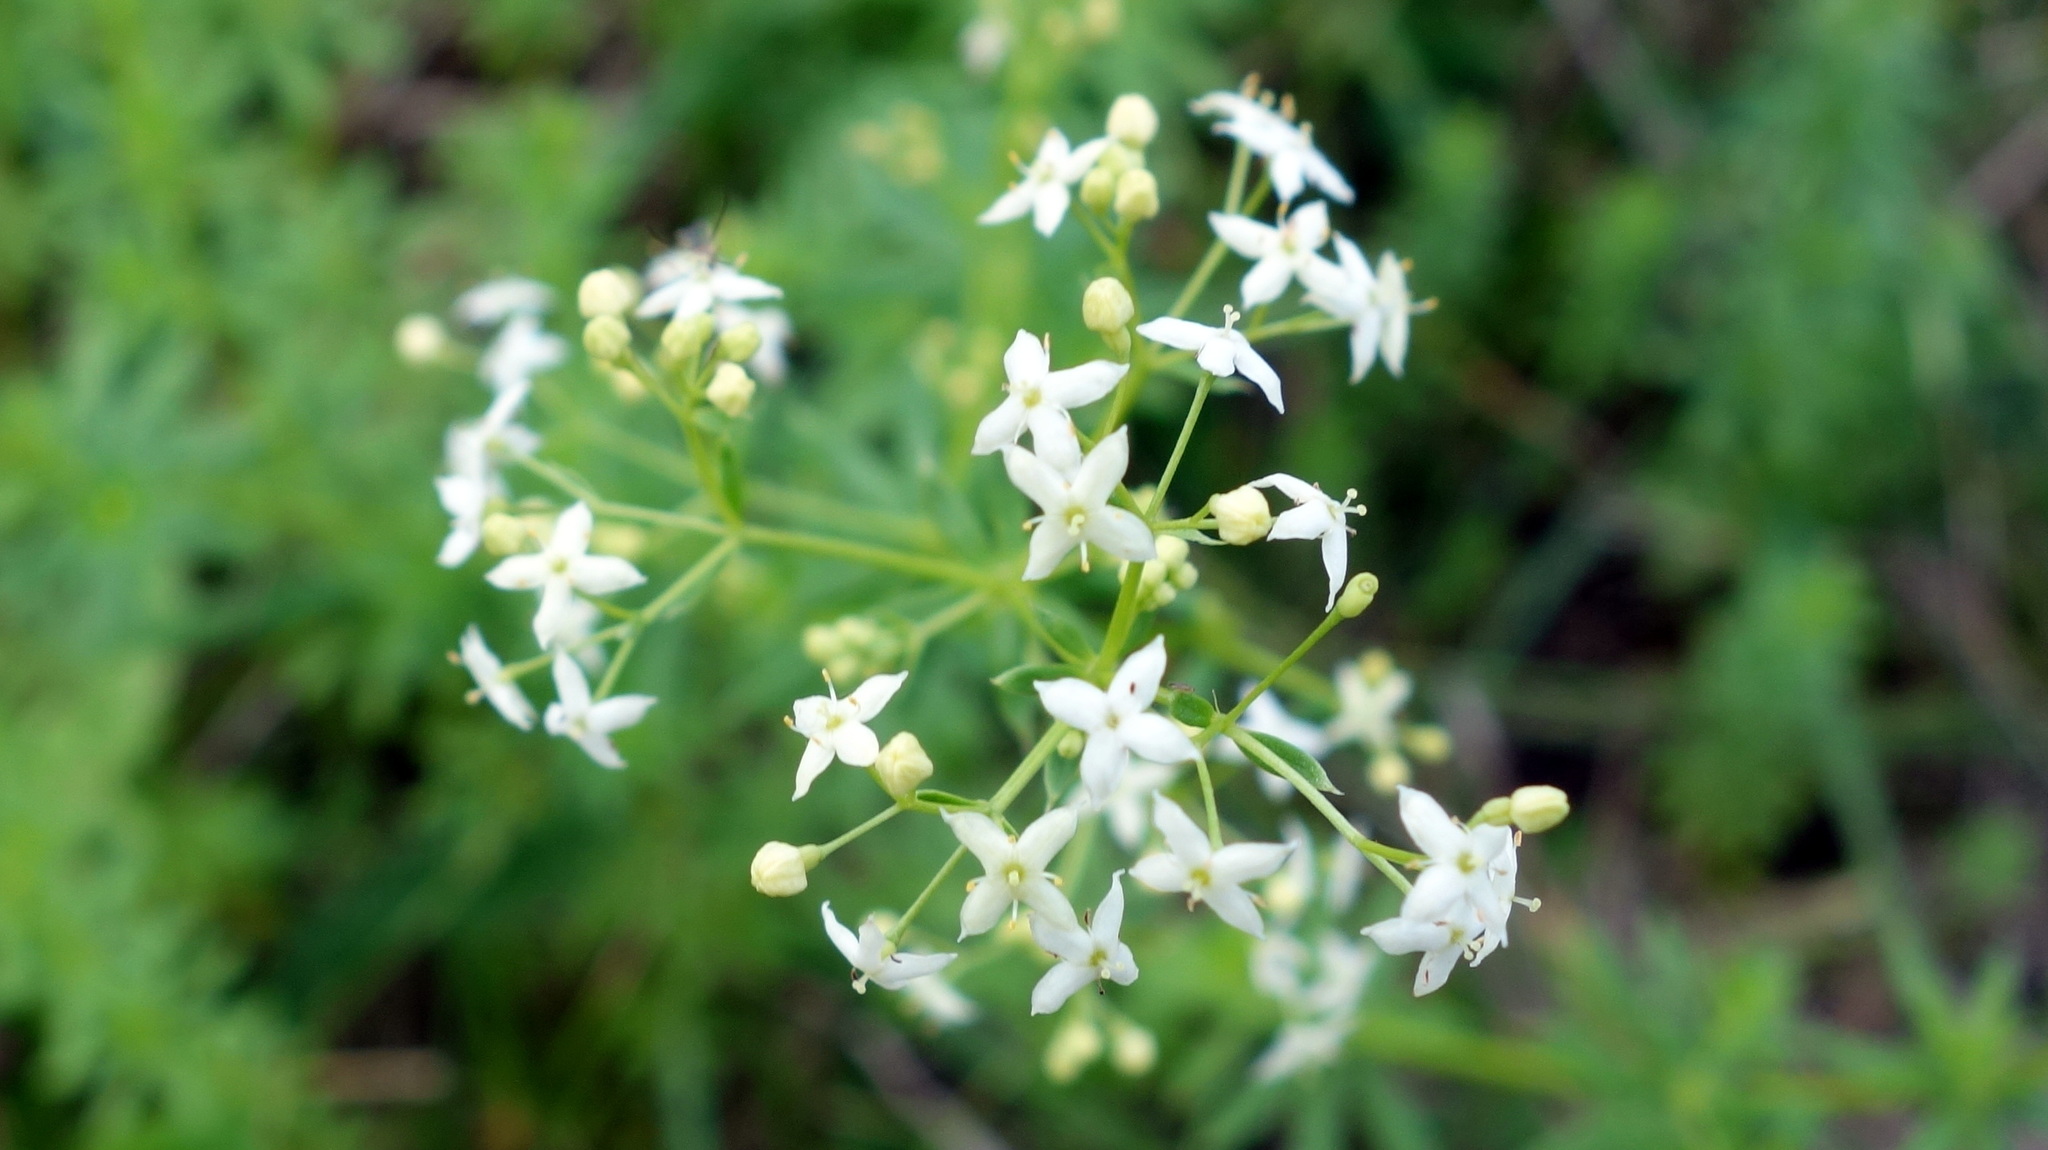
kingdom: Plantae
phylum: Tracheophyta
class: Magnoliopsida
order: Gentianales
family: Rubiaceae
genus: Galium
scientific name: Galium album
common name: White bedstraw
